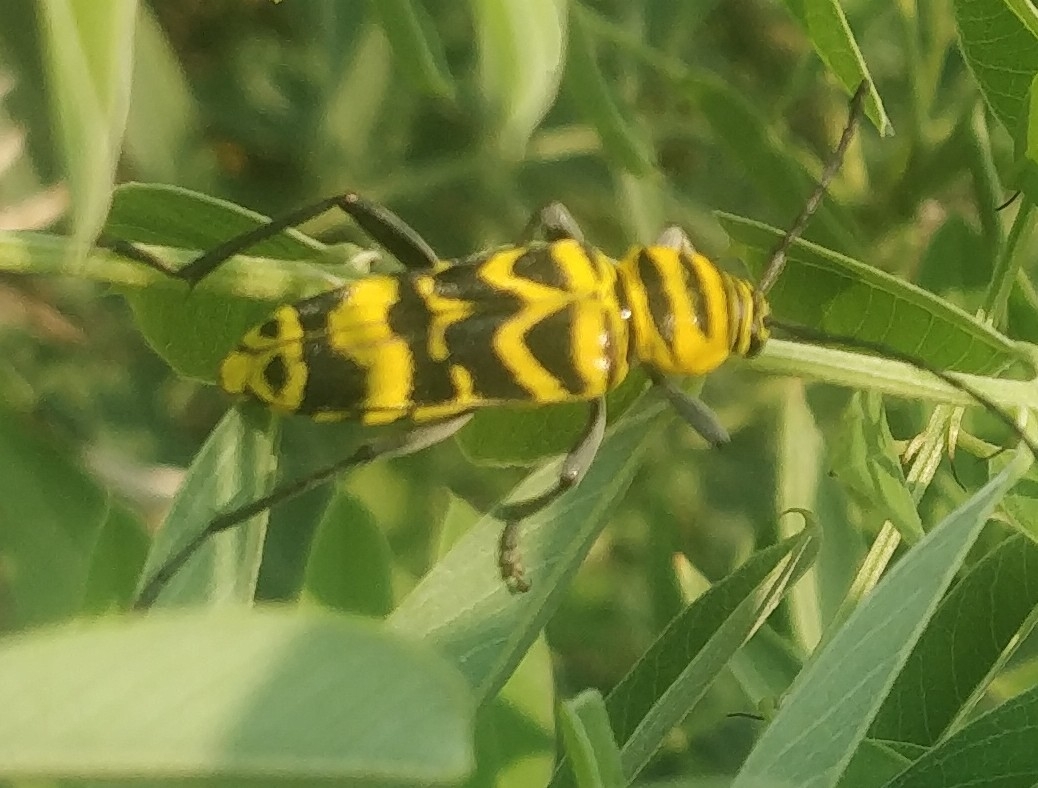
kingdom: Animalia
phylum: Arthropoda
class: Insecta
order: Coleoptera
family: Cerambycidae
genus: Megacyllene
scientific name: Megacyllene decora
